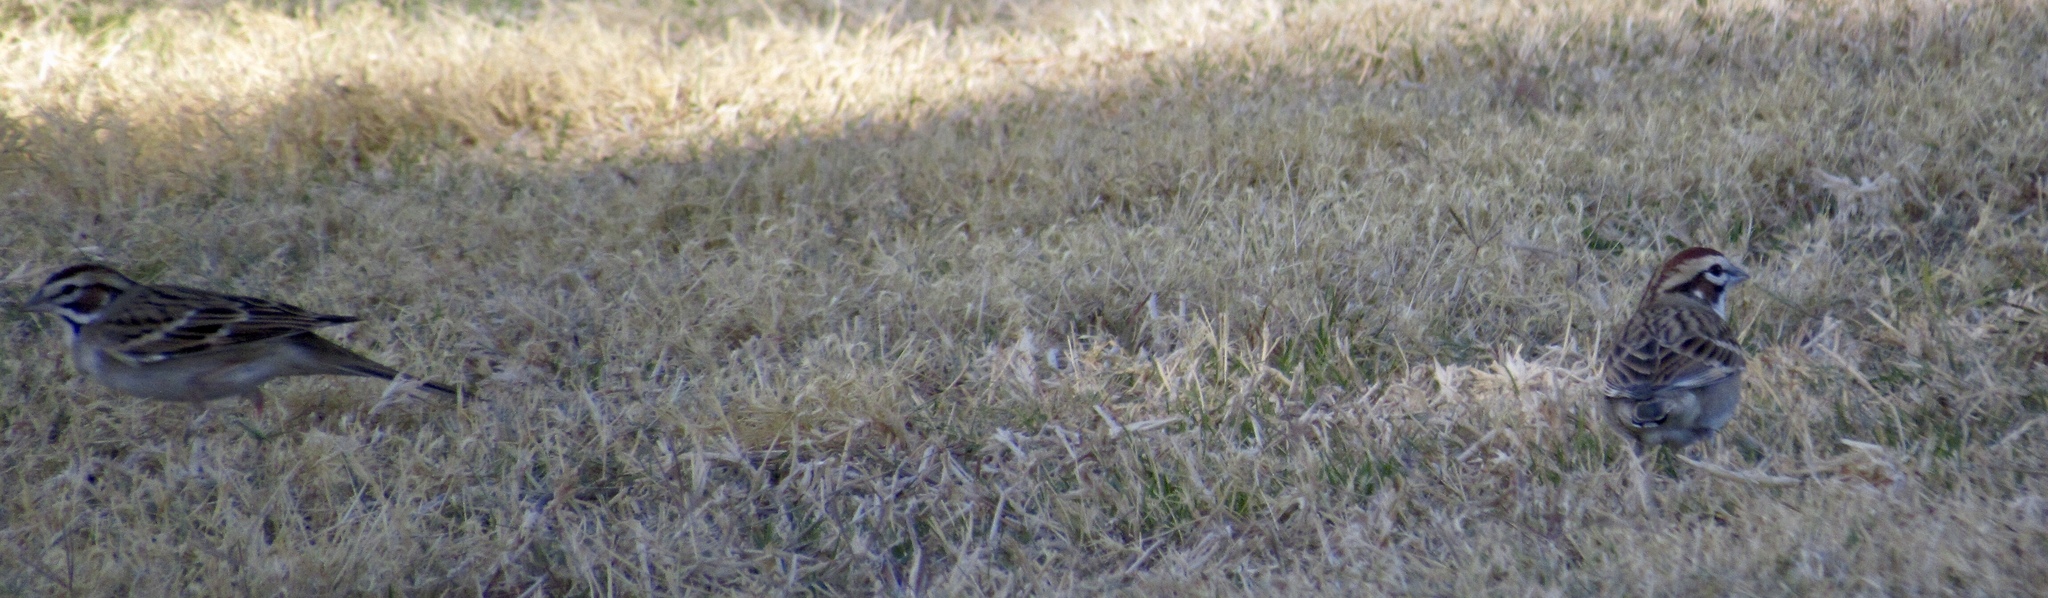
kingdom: Animalia
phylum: Chordata
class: Aves
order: Passeriformes
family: Passerellidae
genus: Chondestes
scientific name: Chondestes grammacus
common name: Lark sparrow
